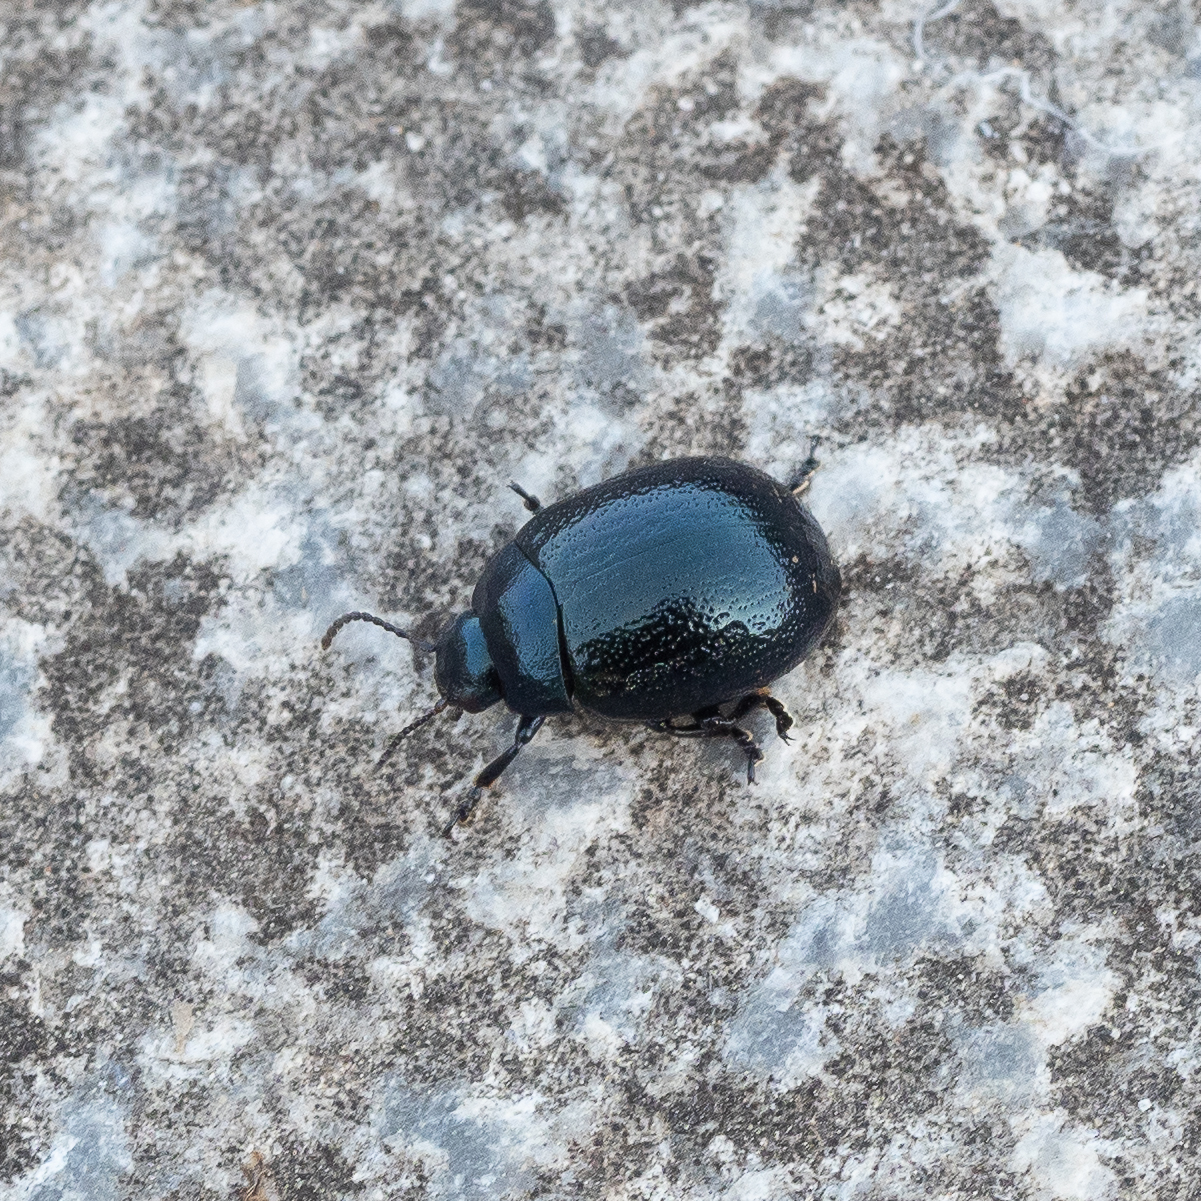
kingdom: Animalia
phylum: Arthropoda
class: Insecta
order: Coleoptera
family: Chrysomelidae
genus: Chrysolina
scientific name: Chrysolina haemoptera
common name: Plantain leaf beetle
